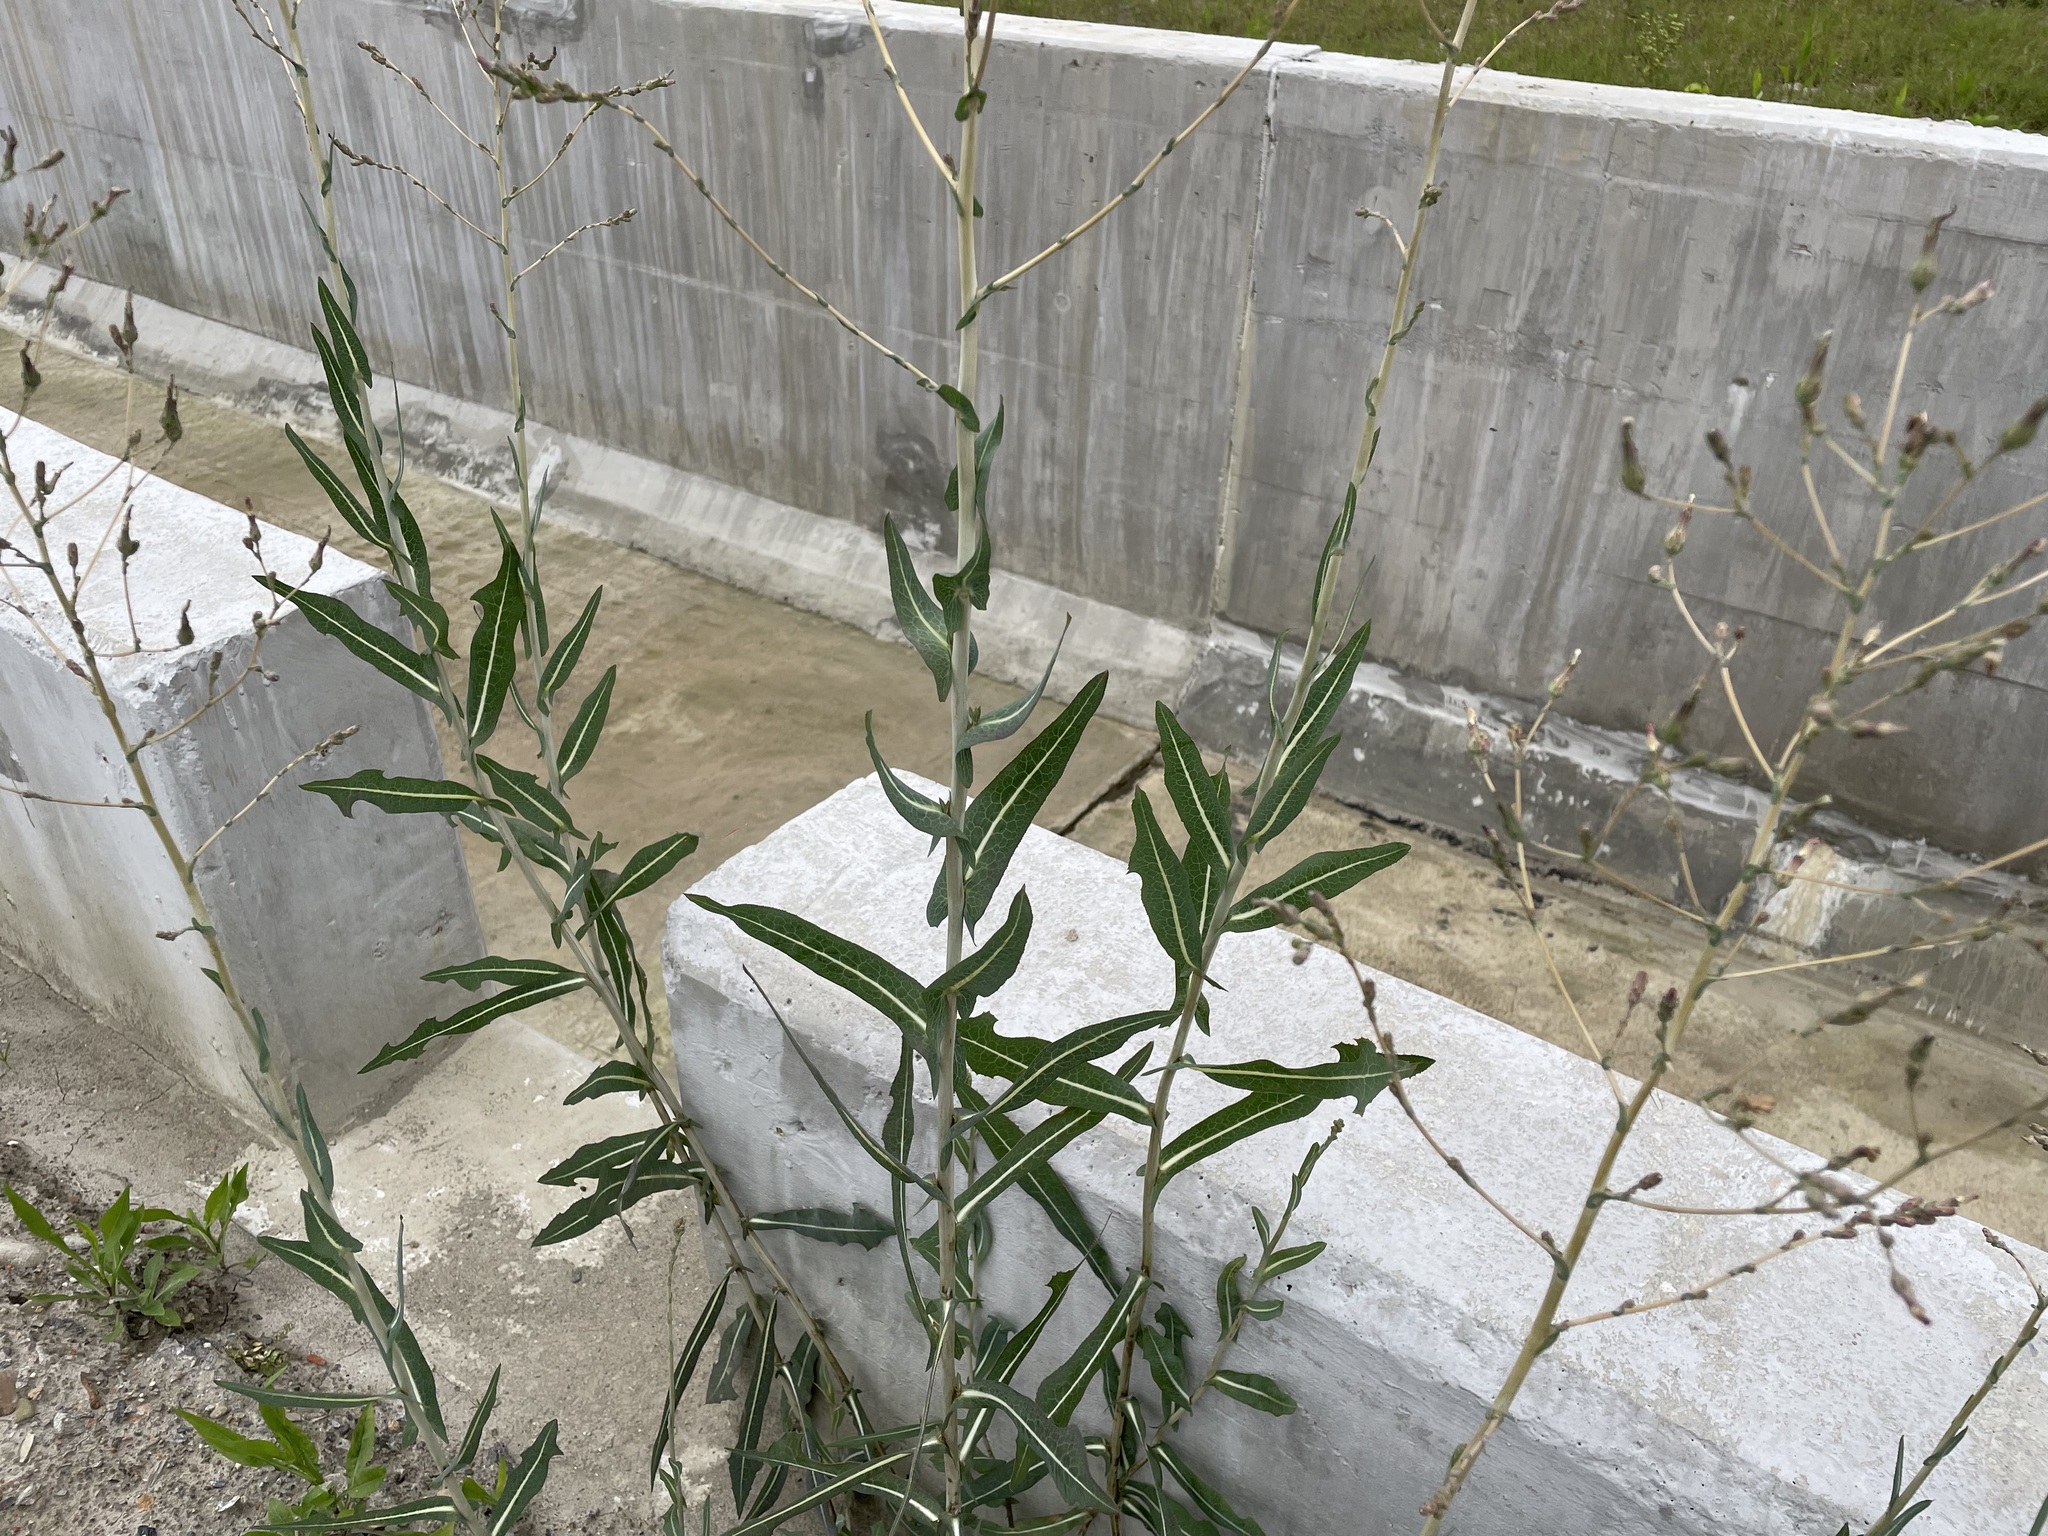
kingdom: Plantae
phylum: Tracheophyta
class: Magnoliopsida
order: Asterales
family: Asteraceae
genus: Lactuca
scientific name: Lactuca serriola
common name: Prickly lettuce
